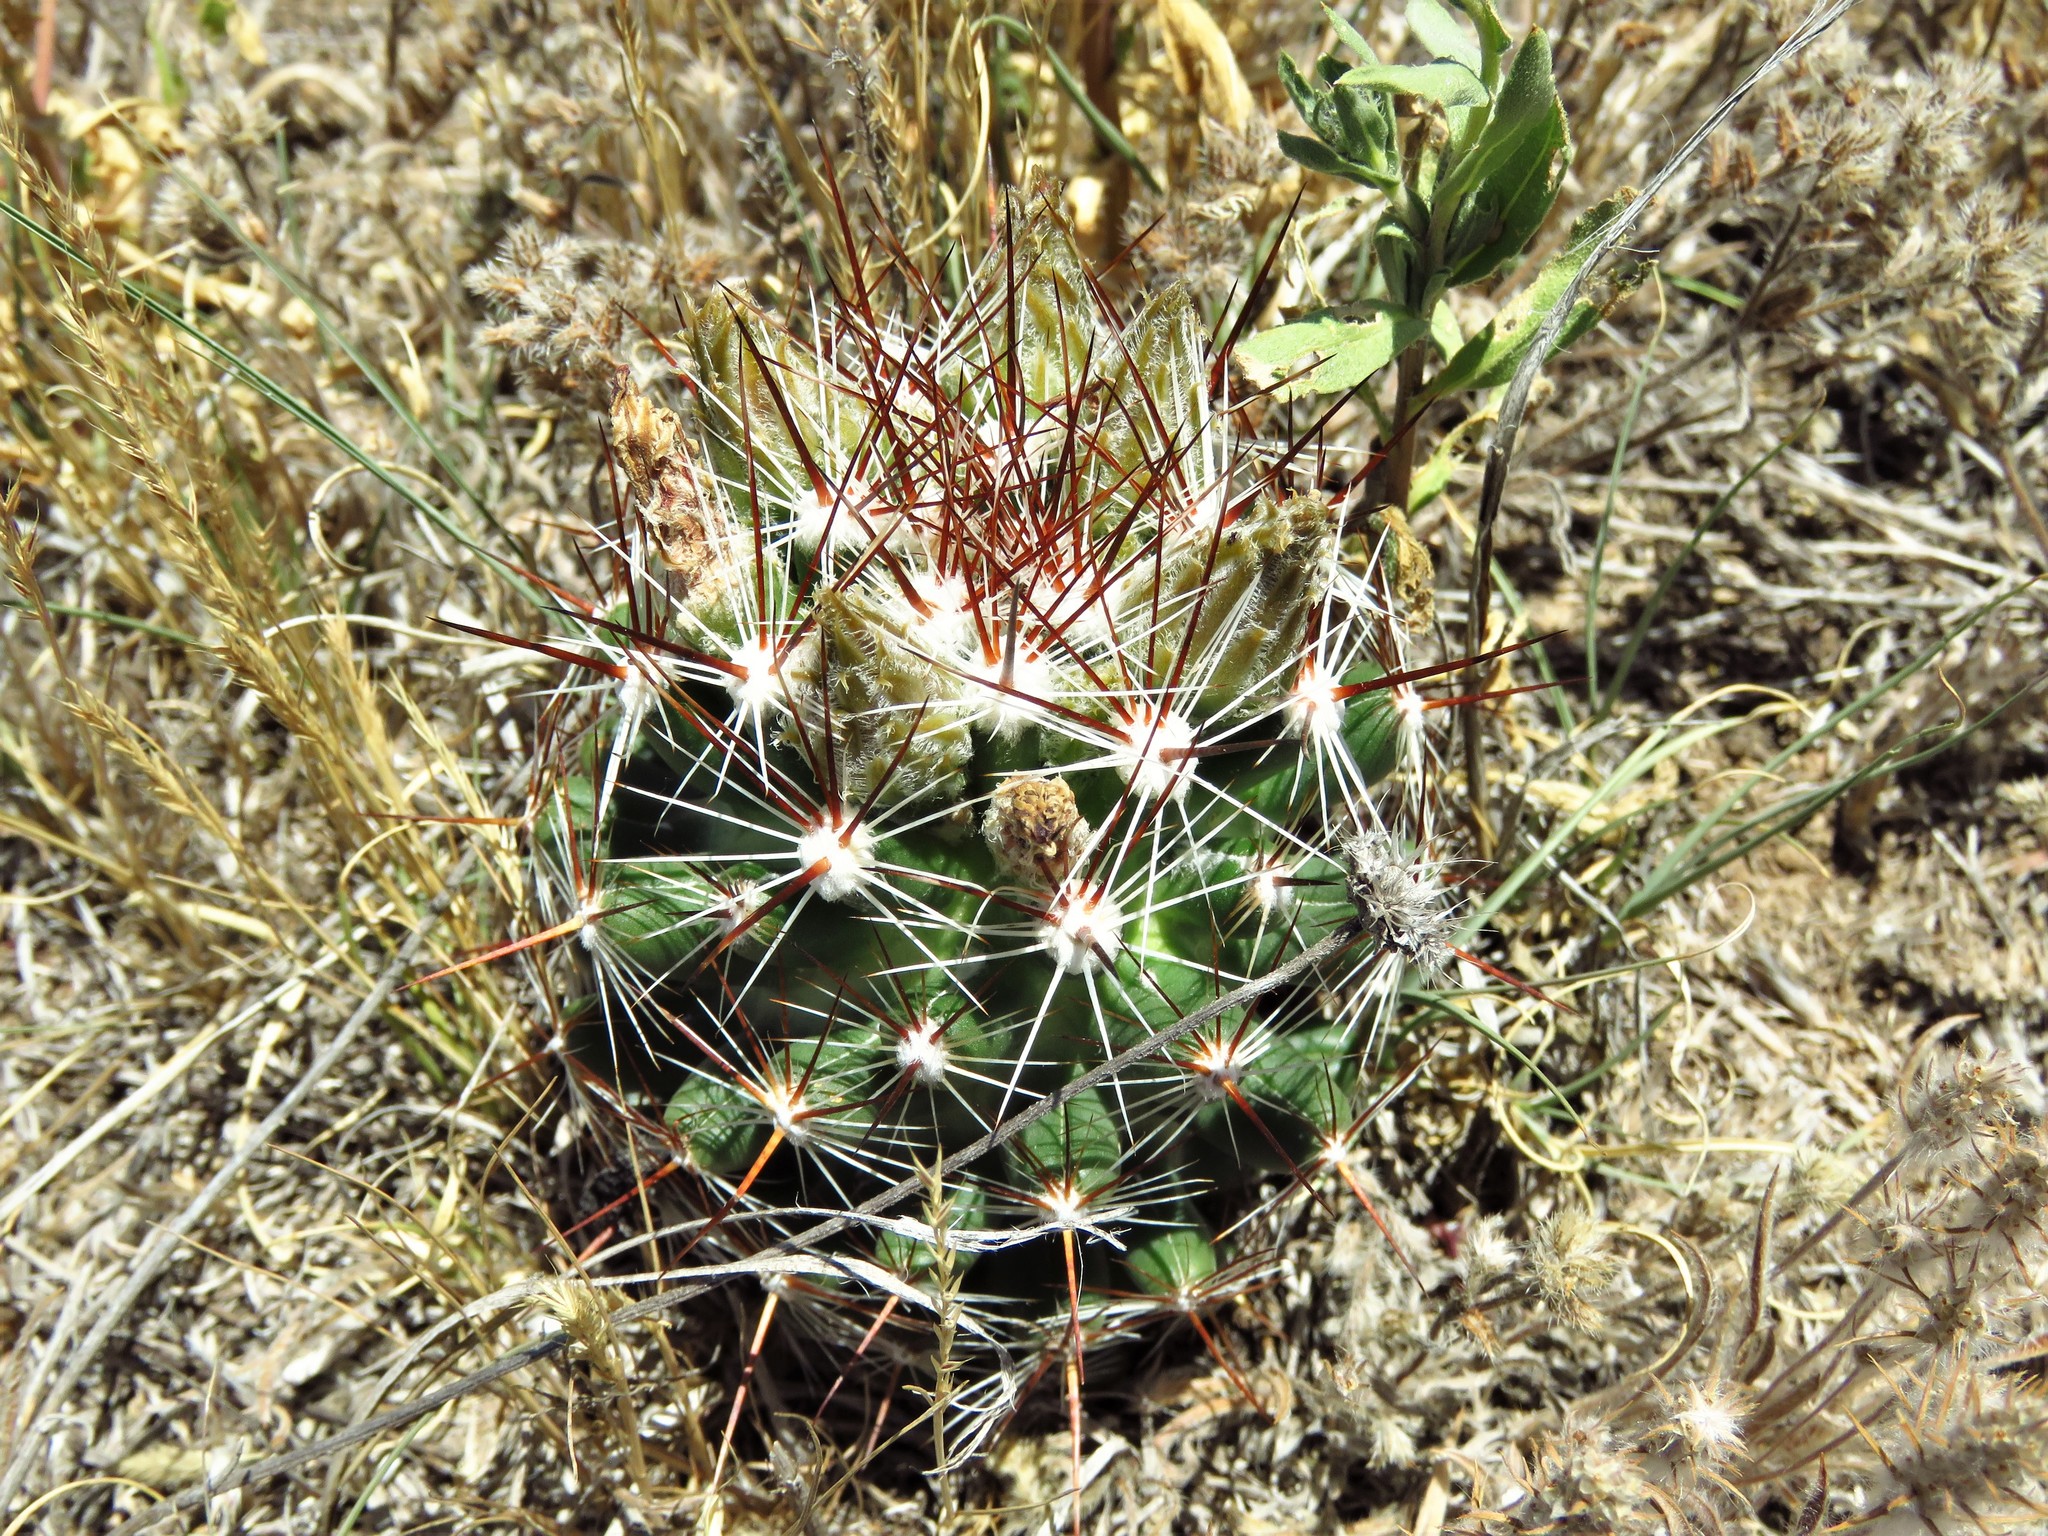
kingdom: Plantae
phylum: Tracheophyta
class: Magnoliopsida
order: Caryophyllales
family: Cactaceae
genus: Pelecyphora
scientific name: Pelecyphora vivipara
